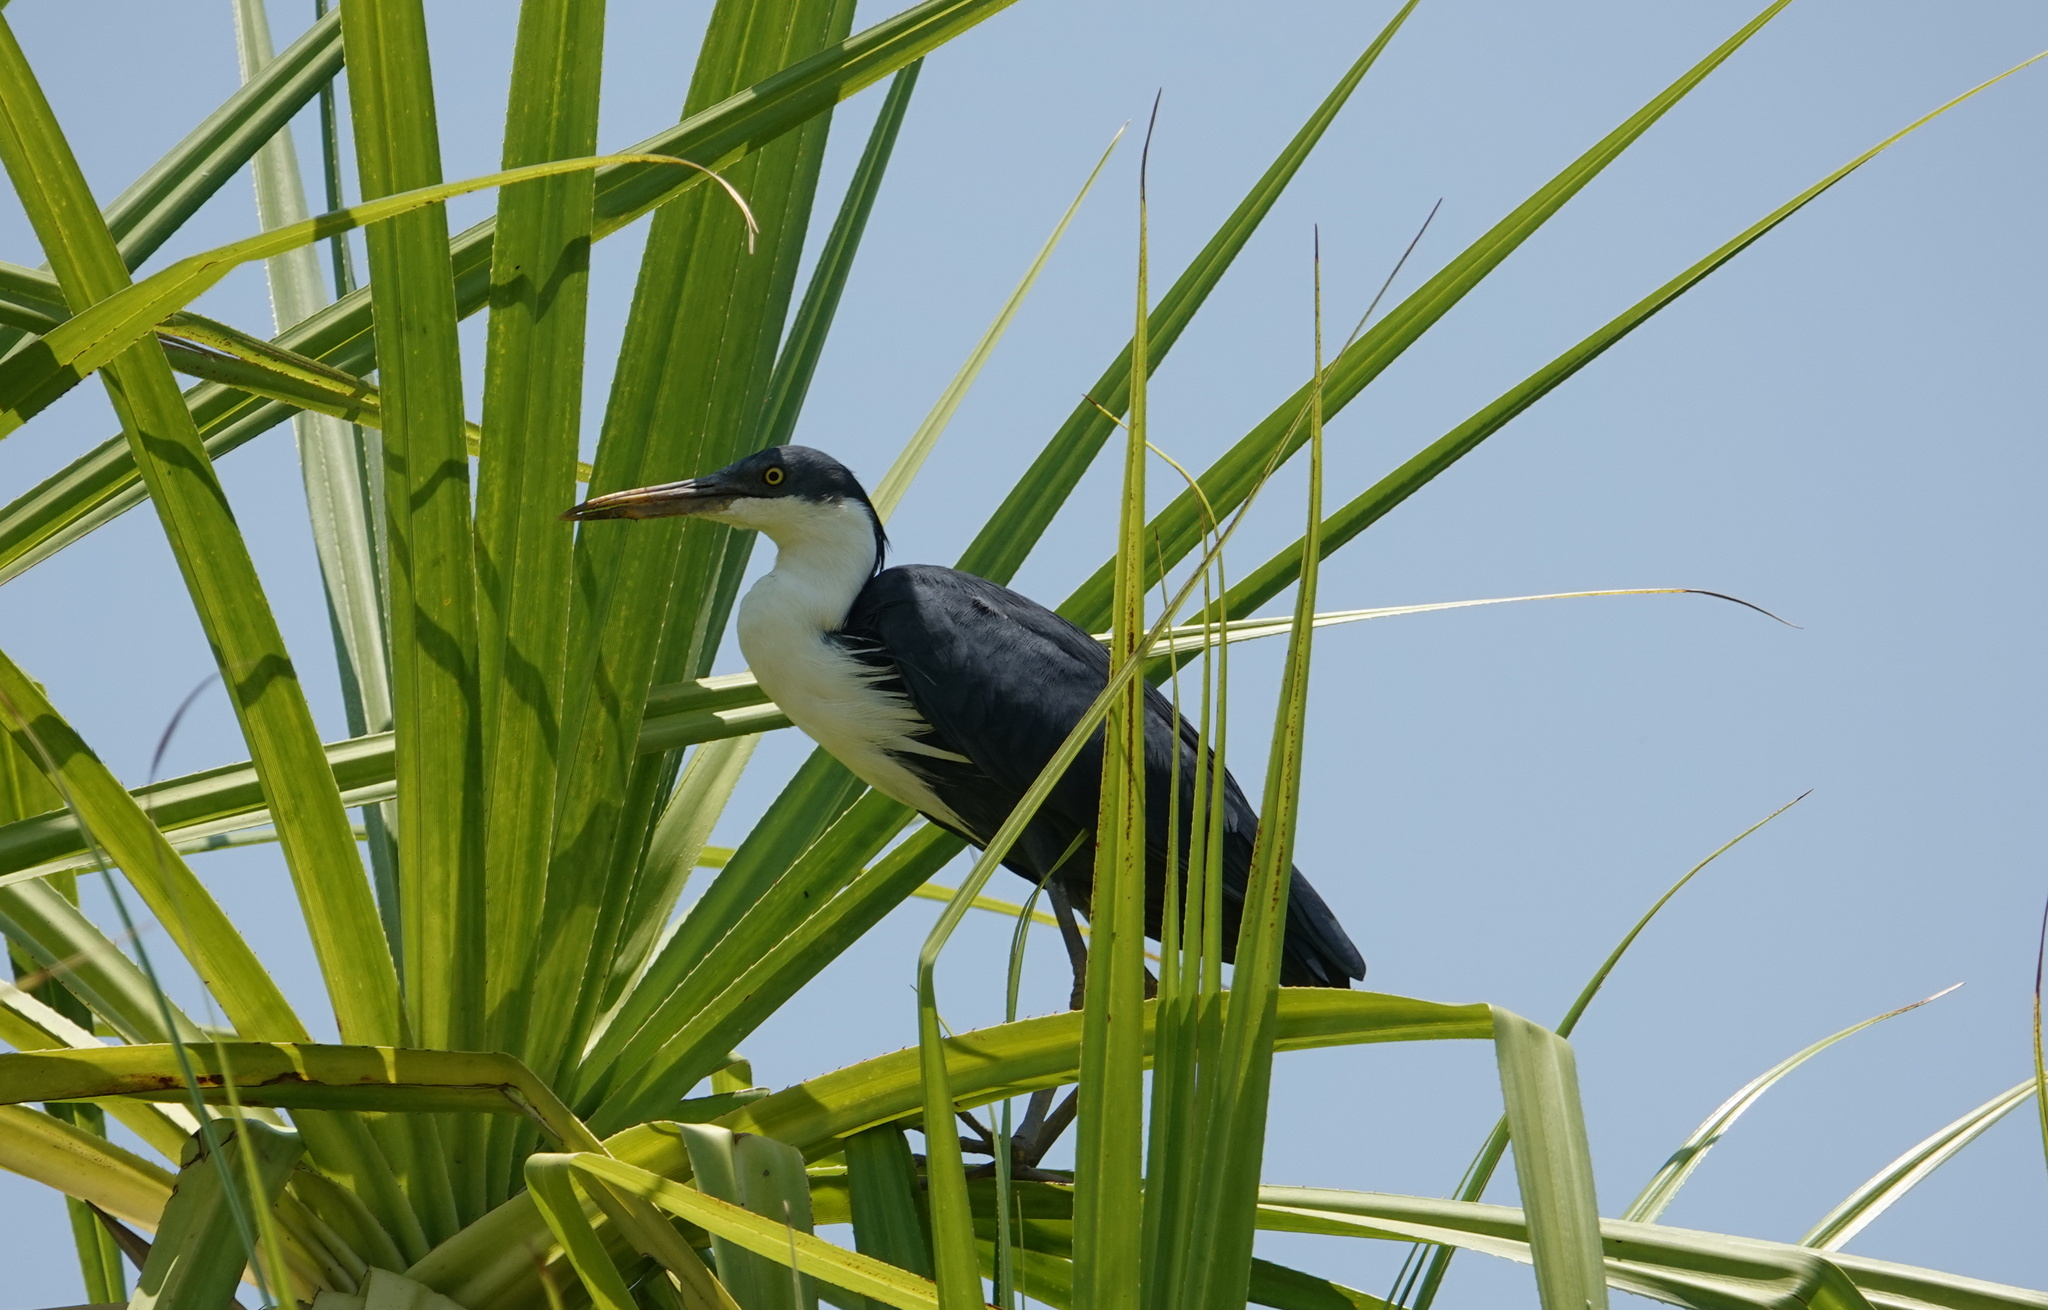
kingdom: Animalia
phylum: Chordata
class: Aves
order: Pelecaniformes
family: Ardeidae
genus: Egretta
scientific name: Egretta picata
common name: Pied heron
